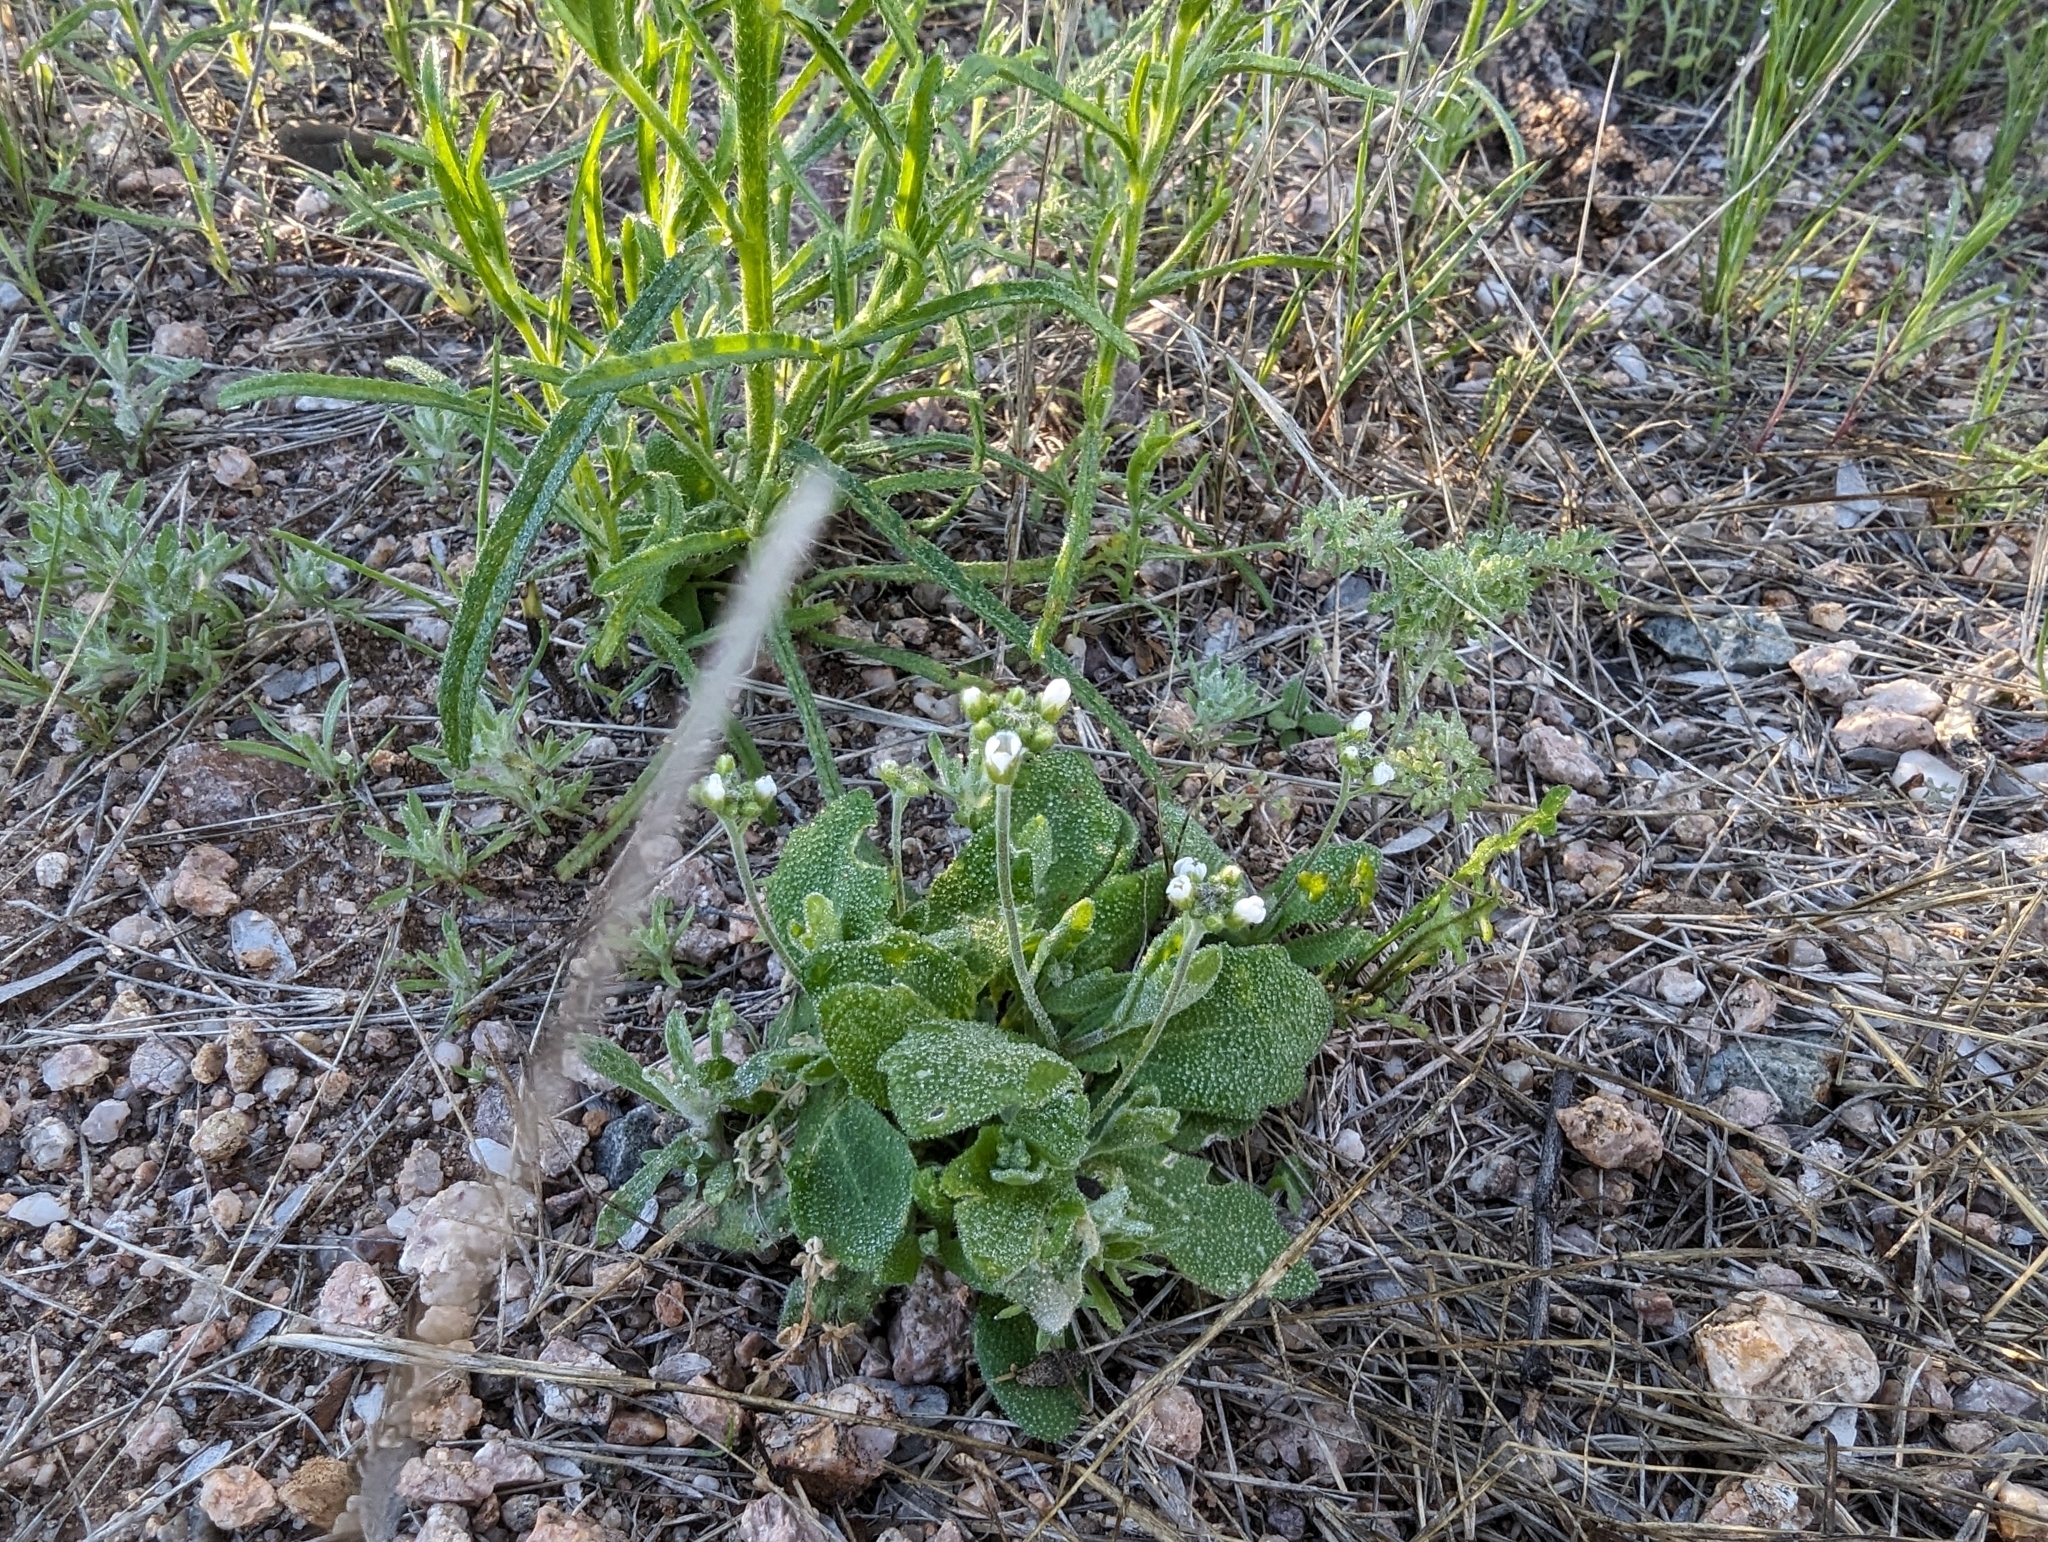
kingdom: Plantae
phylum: Tracheophyta
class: Magnoliopsida
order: Brassicales
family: Brassicaceae
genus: Tomostima
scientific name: Tomostima cuneifolia
